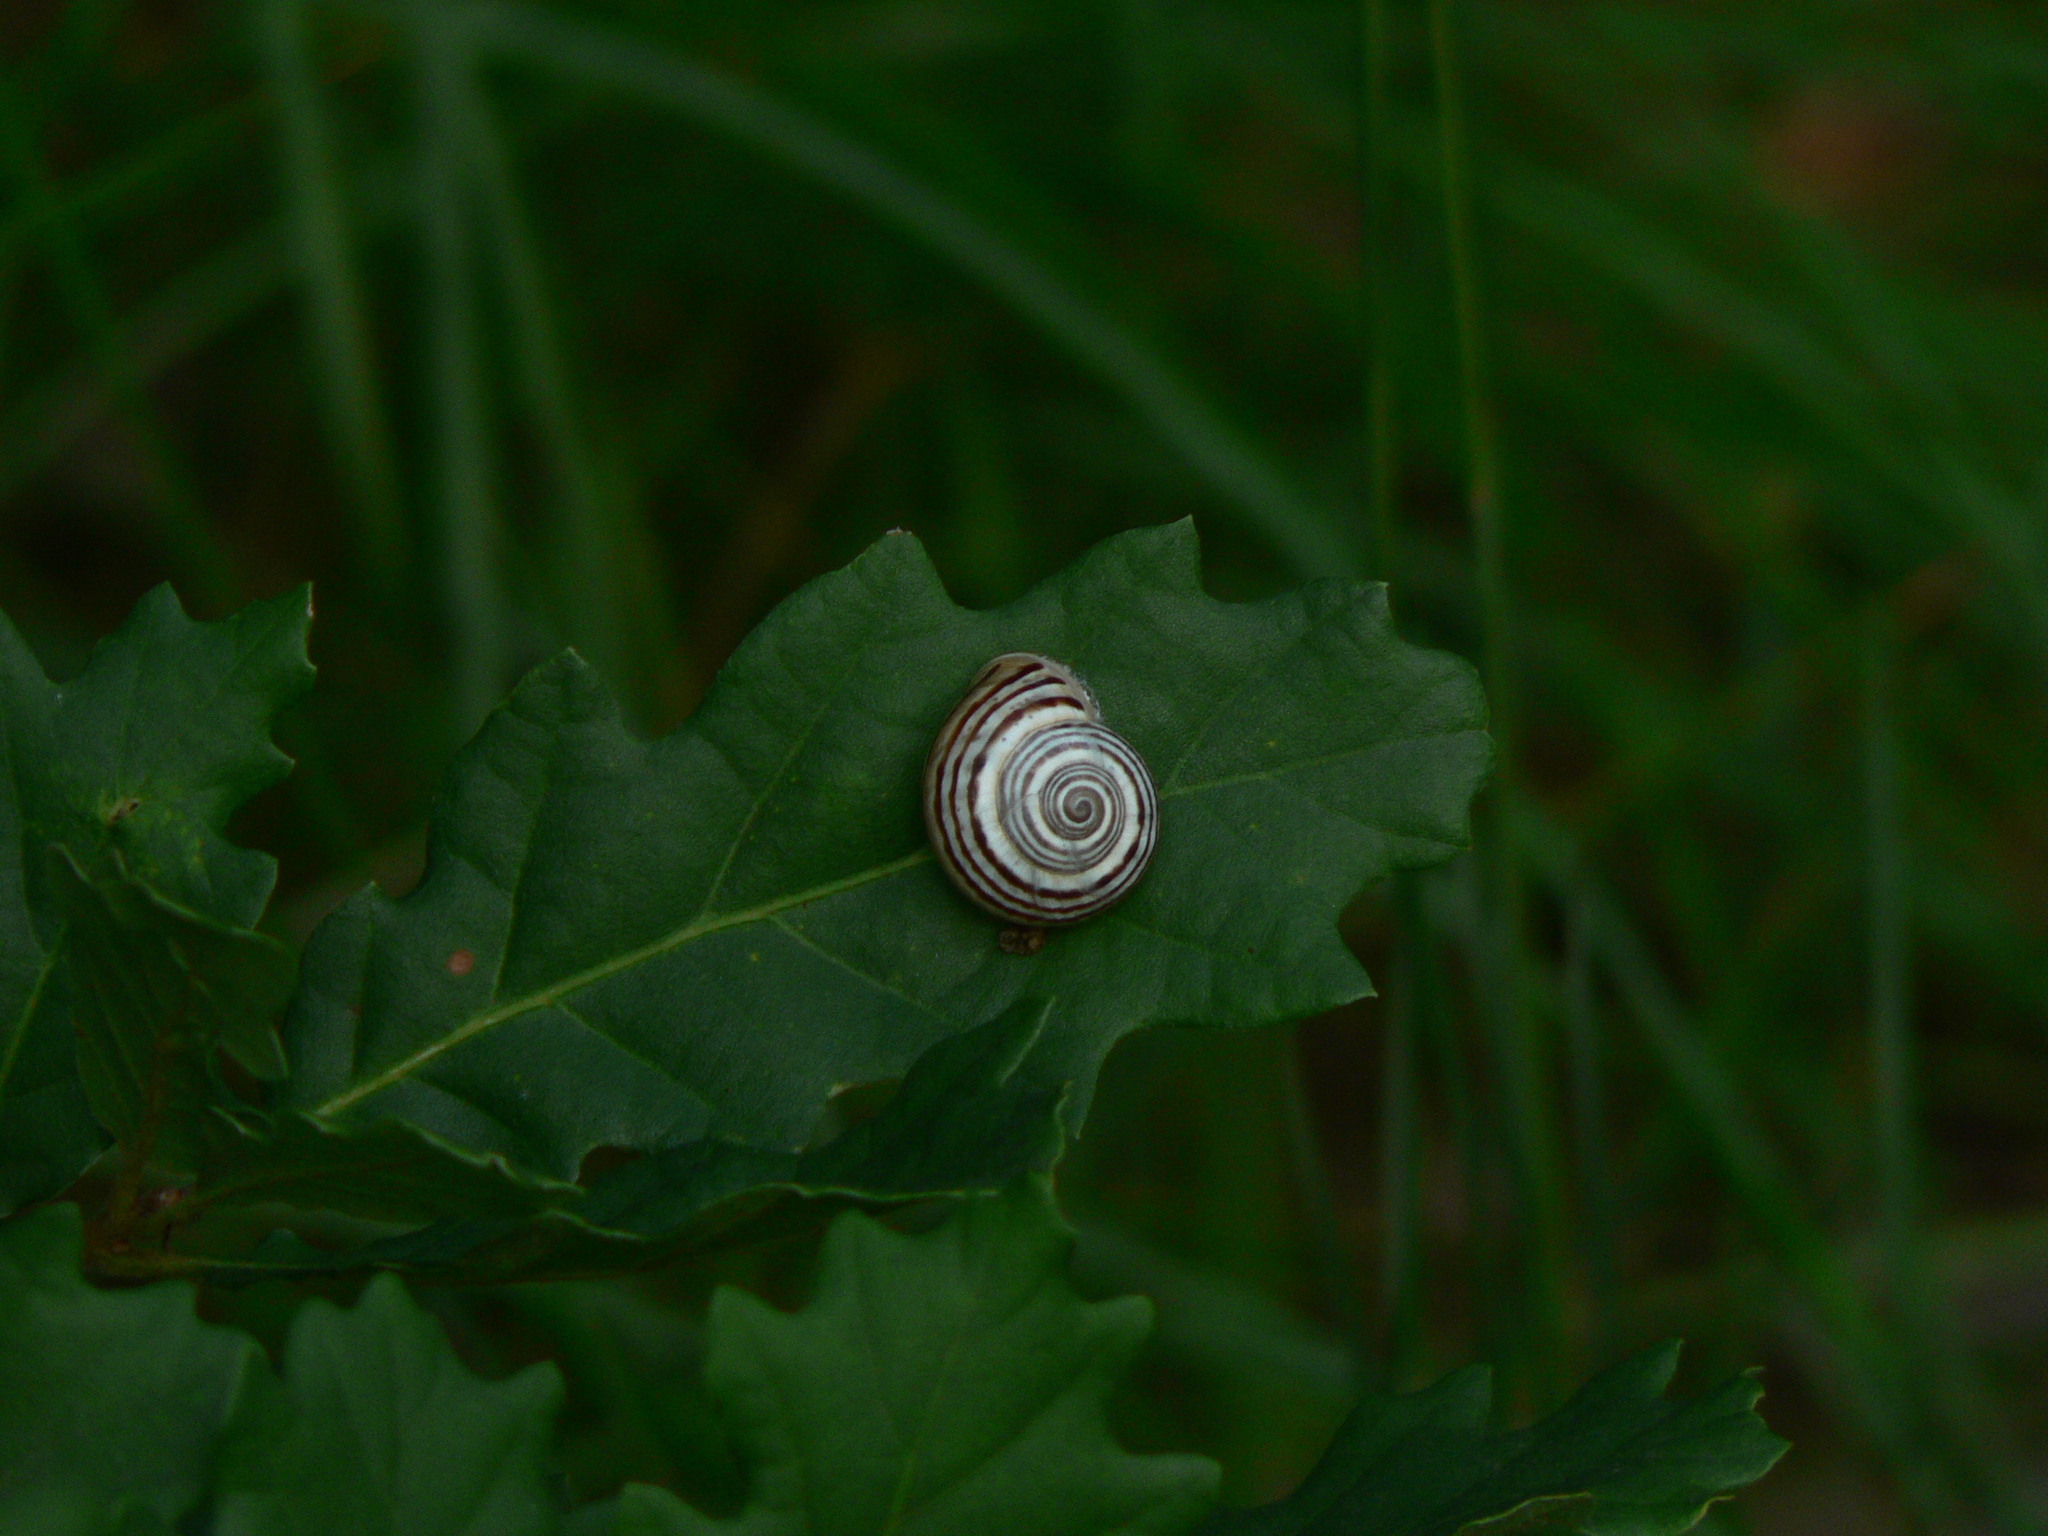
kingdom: Animalia
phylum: Mollusca
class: Gastropoda
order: Stylommatophora
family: Helicidae
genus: Pseudotachea
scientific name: Pseudotachea splendida
